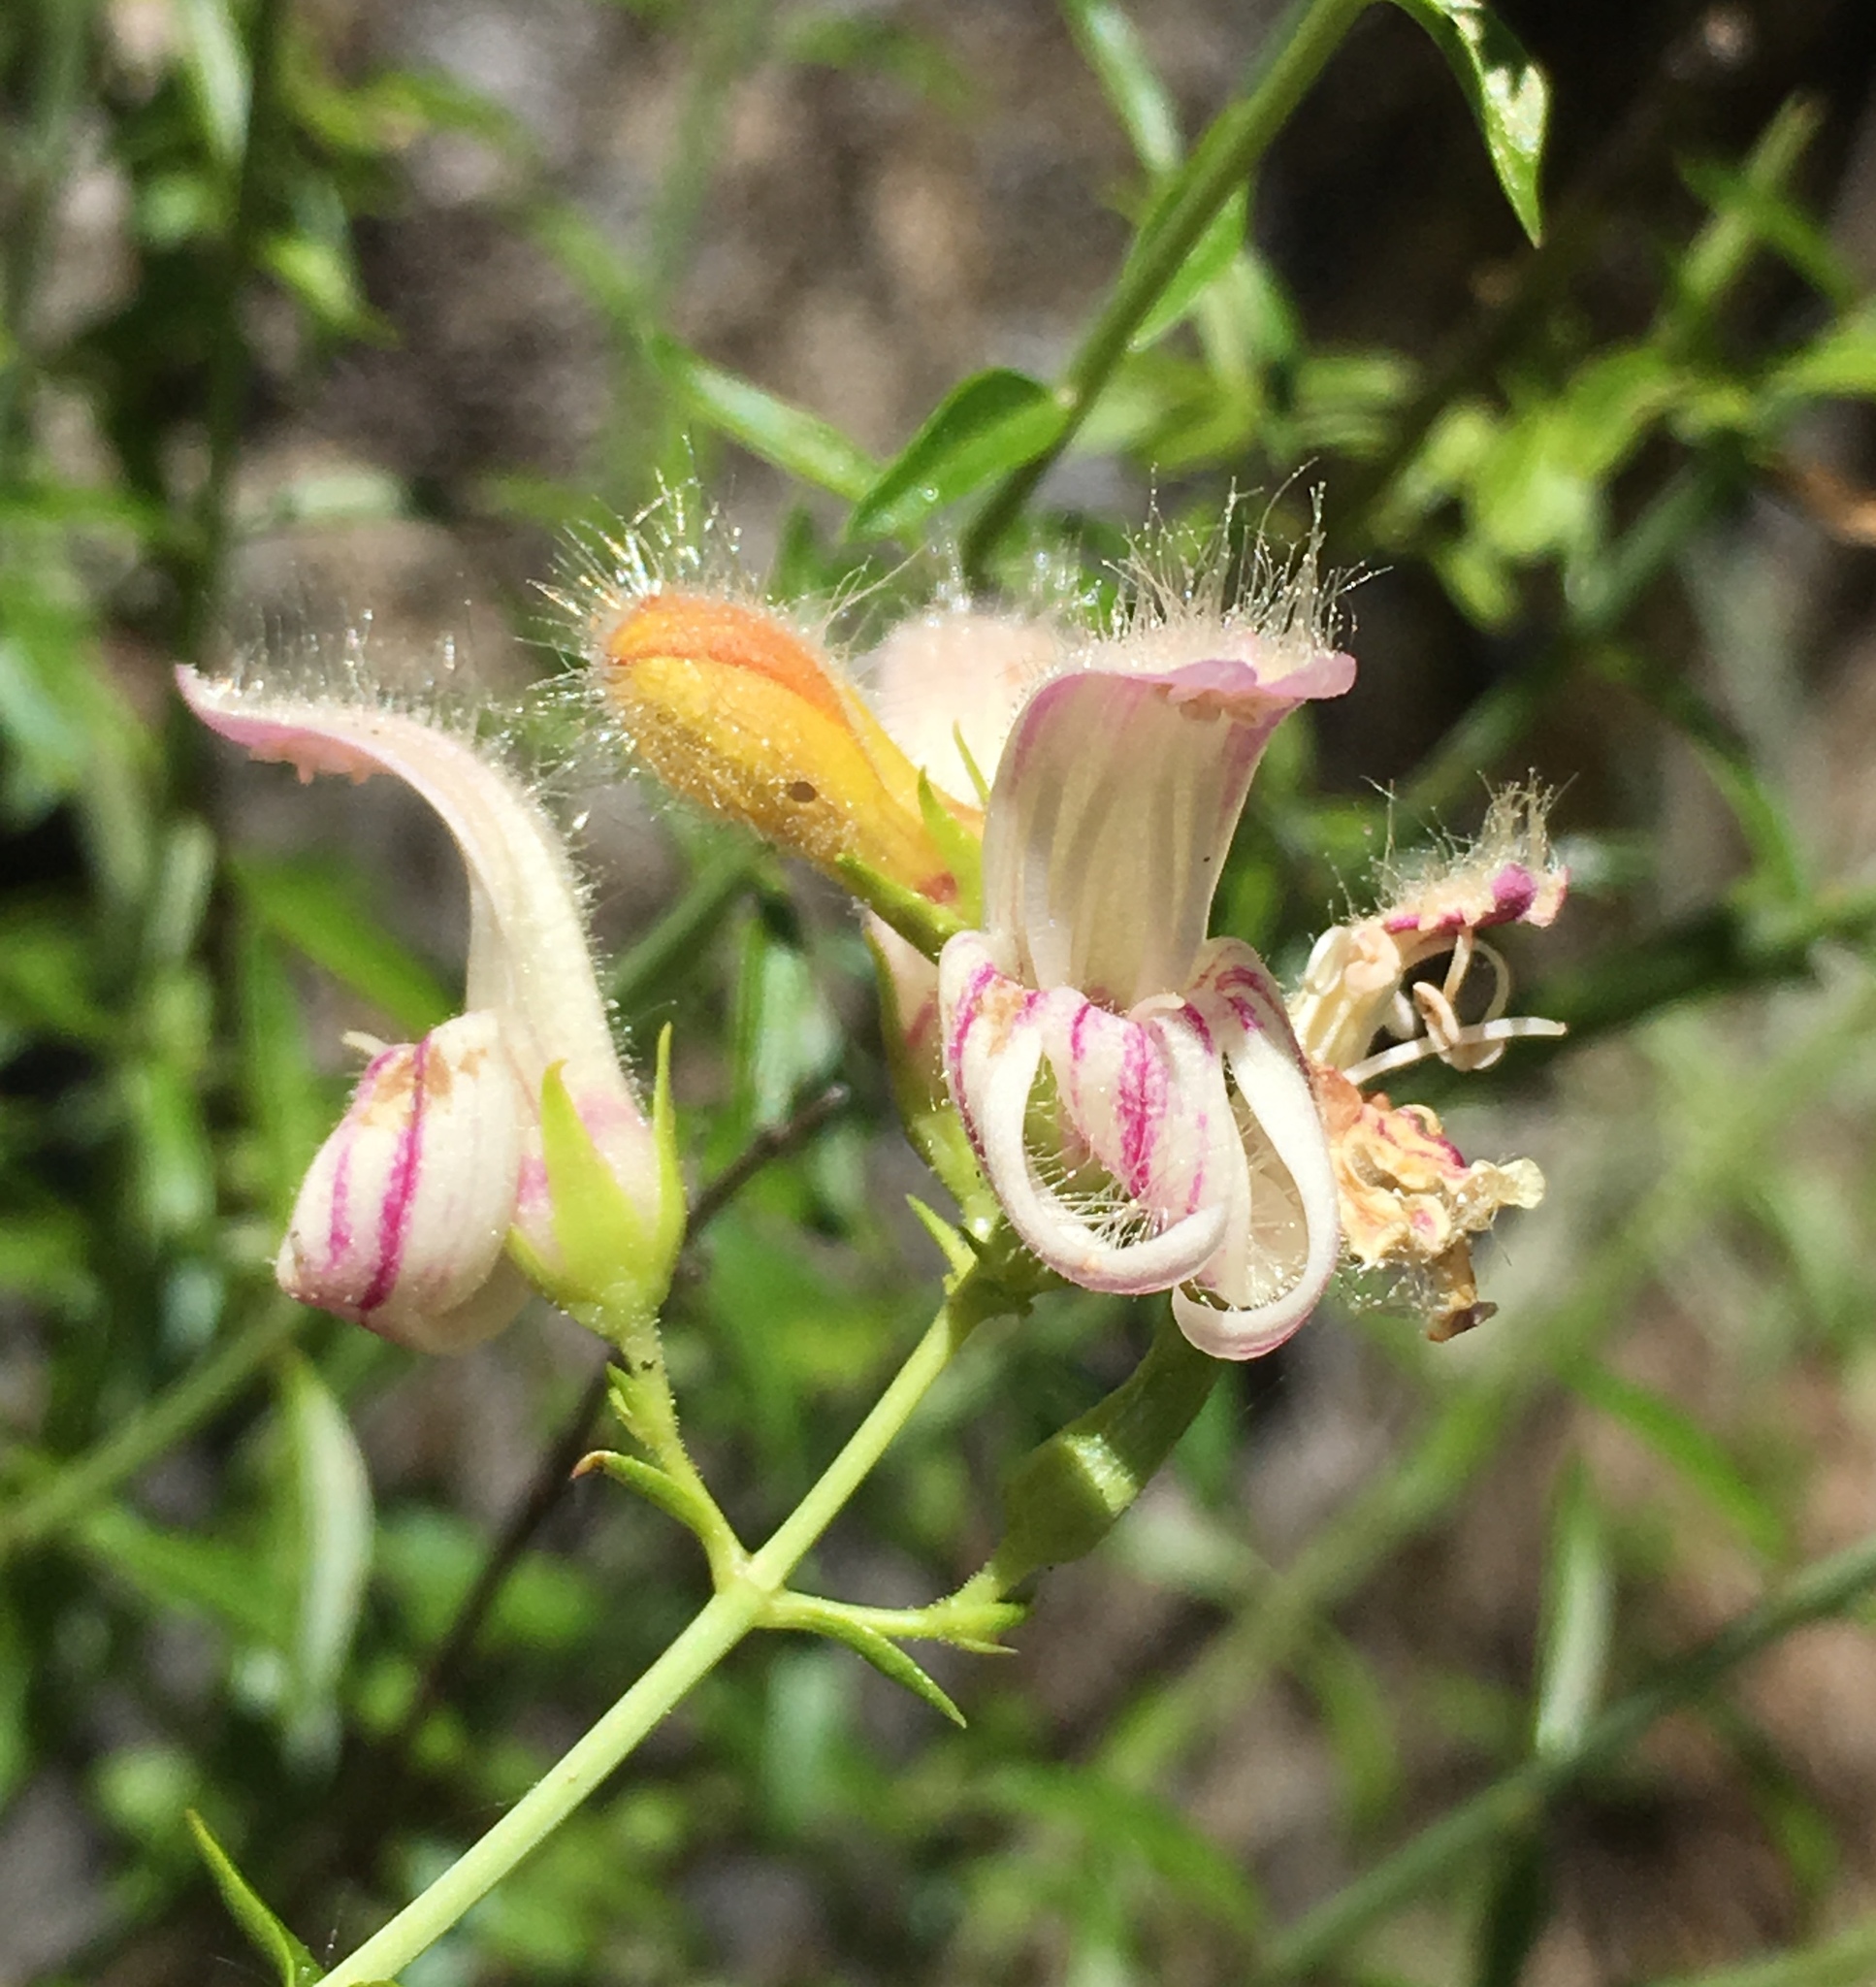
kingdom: Plantae
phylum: Tracheophyta
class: Magnoliopsida
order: Lamiales
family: Plantaginaceae
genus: Keckiella
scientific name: Keckiella breviflora
